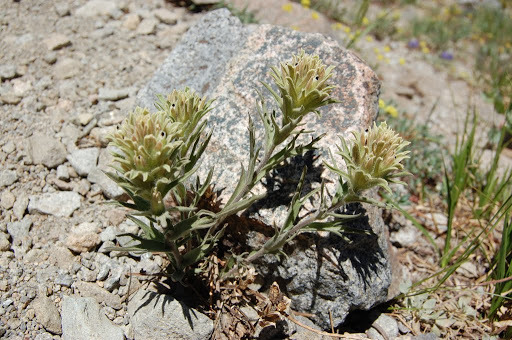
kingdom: Plantae
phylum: Tracheophyta
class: Magnoliopsida
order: Lamiales
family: Orobanchaceae
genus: Castilleja
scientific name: Castilleja nana
